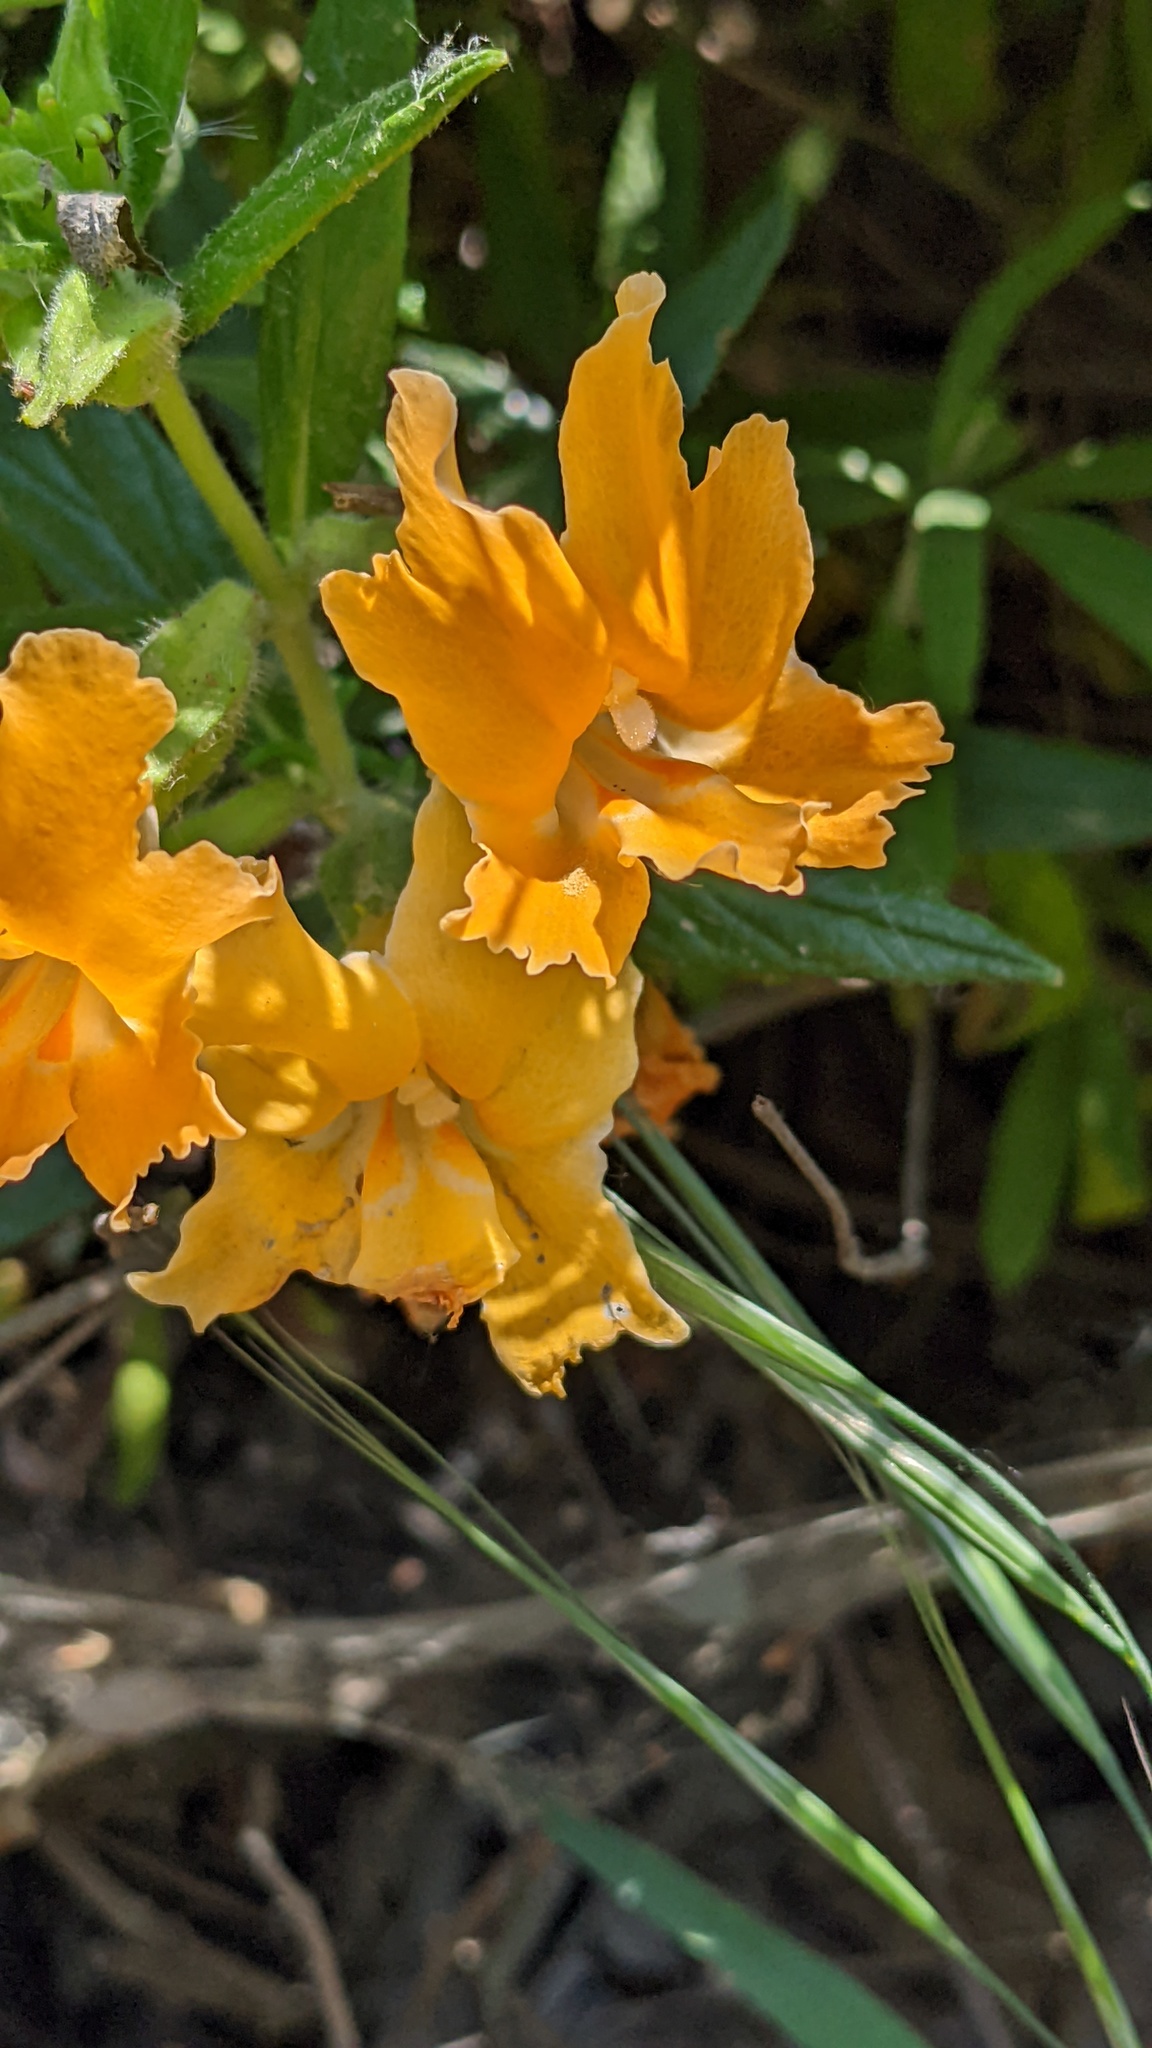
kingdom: Plantae
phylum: Tracheophyta
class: Magnoliopsida
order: Lamiales
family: Phrymaceae
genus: Diplacus
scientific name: Diplacus longiflorus
